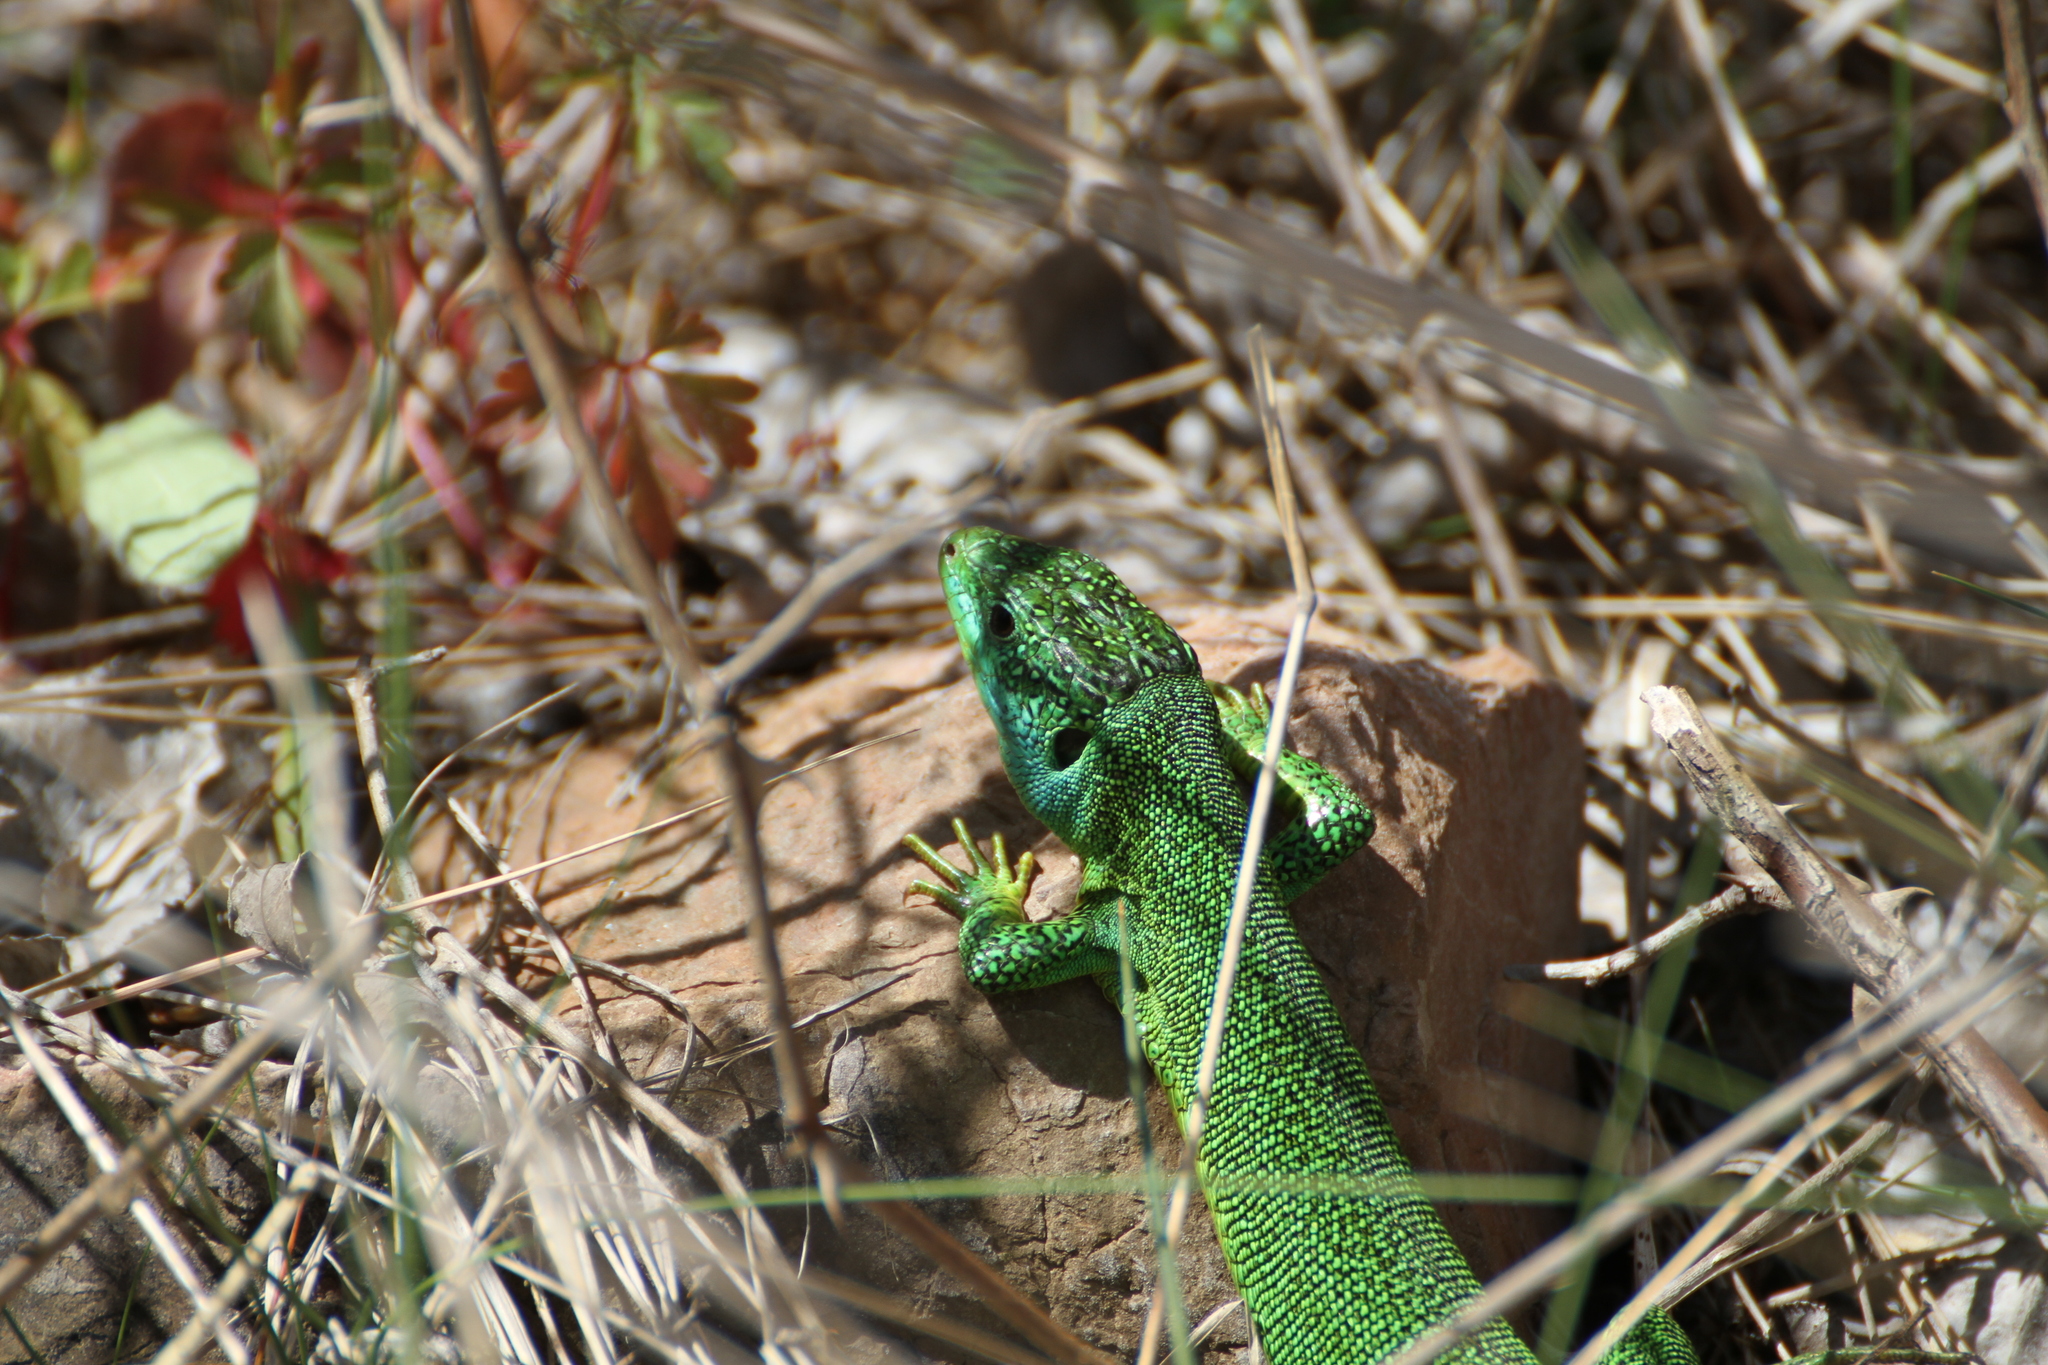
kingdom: Animalia
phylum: Chordata
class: Squamata
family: Lacertidae
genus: Lacerta
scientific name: Lacerta bilineata
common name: Western green lizard
